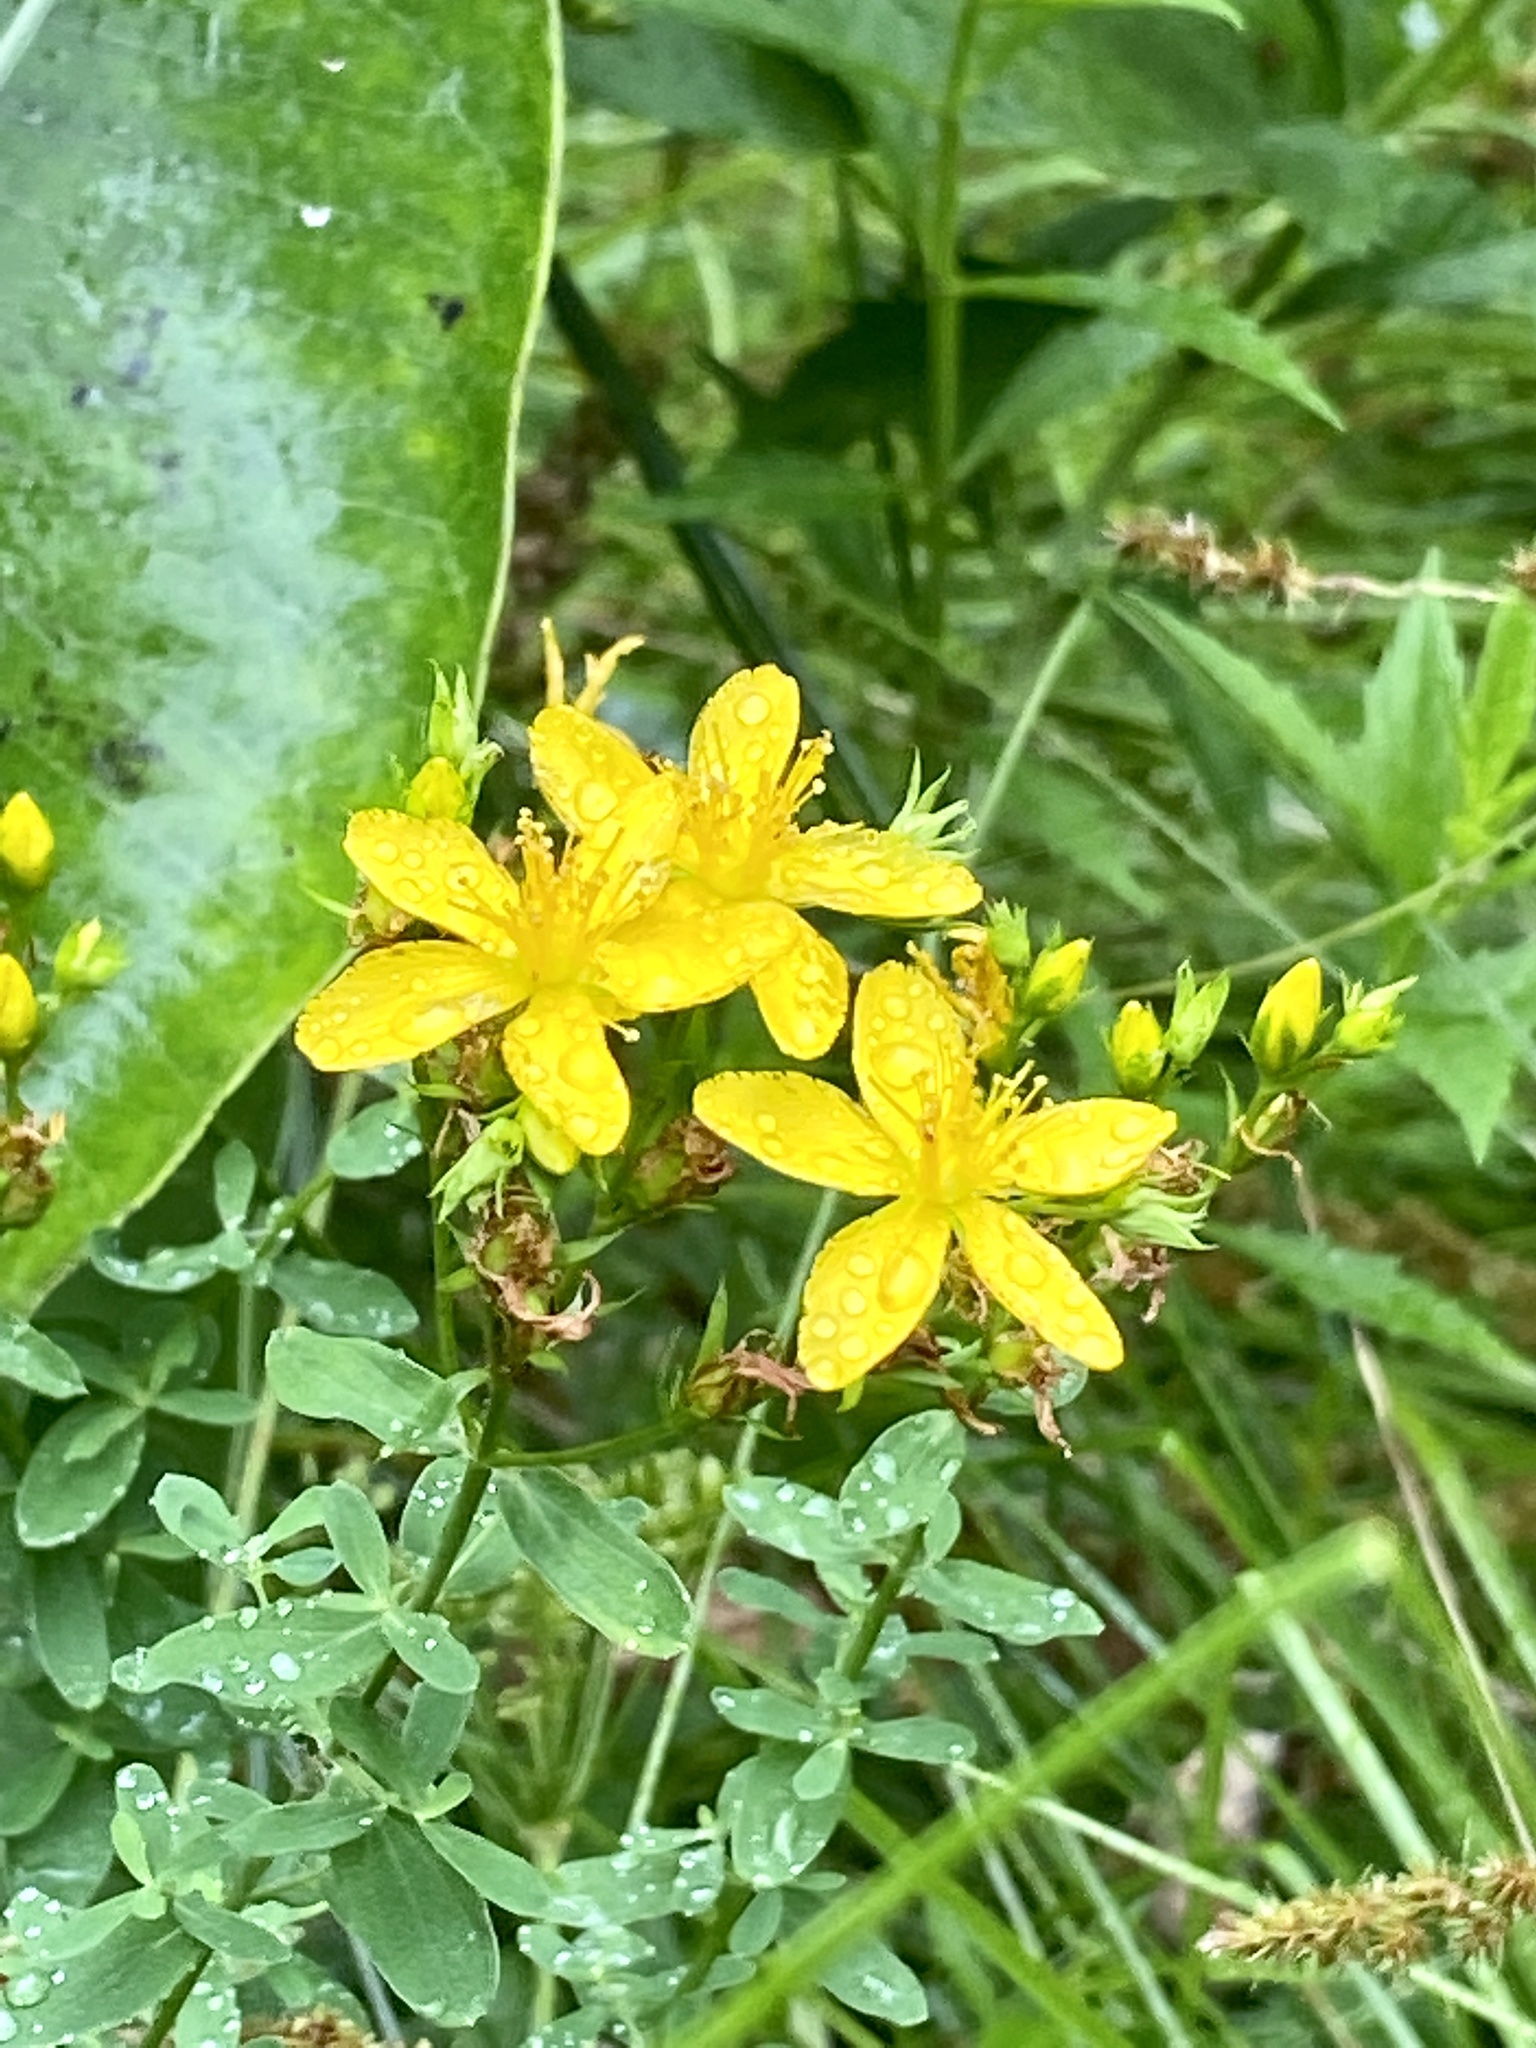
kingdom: Plantae
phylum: Tracheophyta
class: Magnoliopsida
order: Malpighiales
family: Hypericaceae
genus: Hypericum
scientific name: Hypericum perforatum
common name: Common st. johnswort
